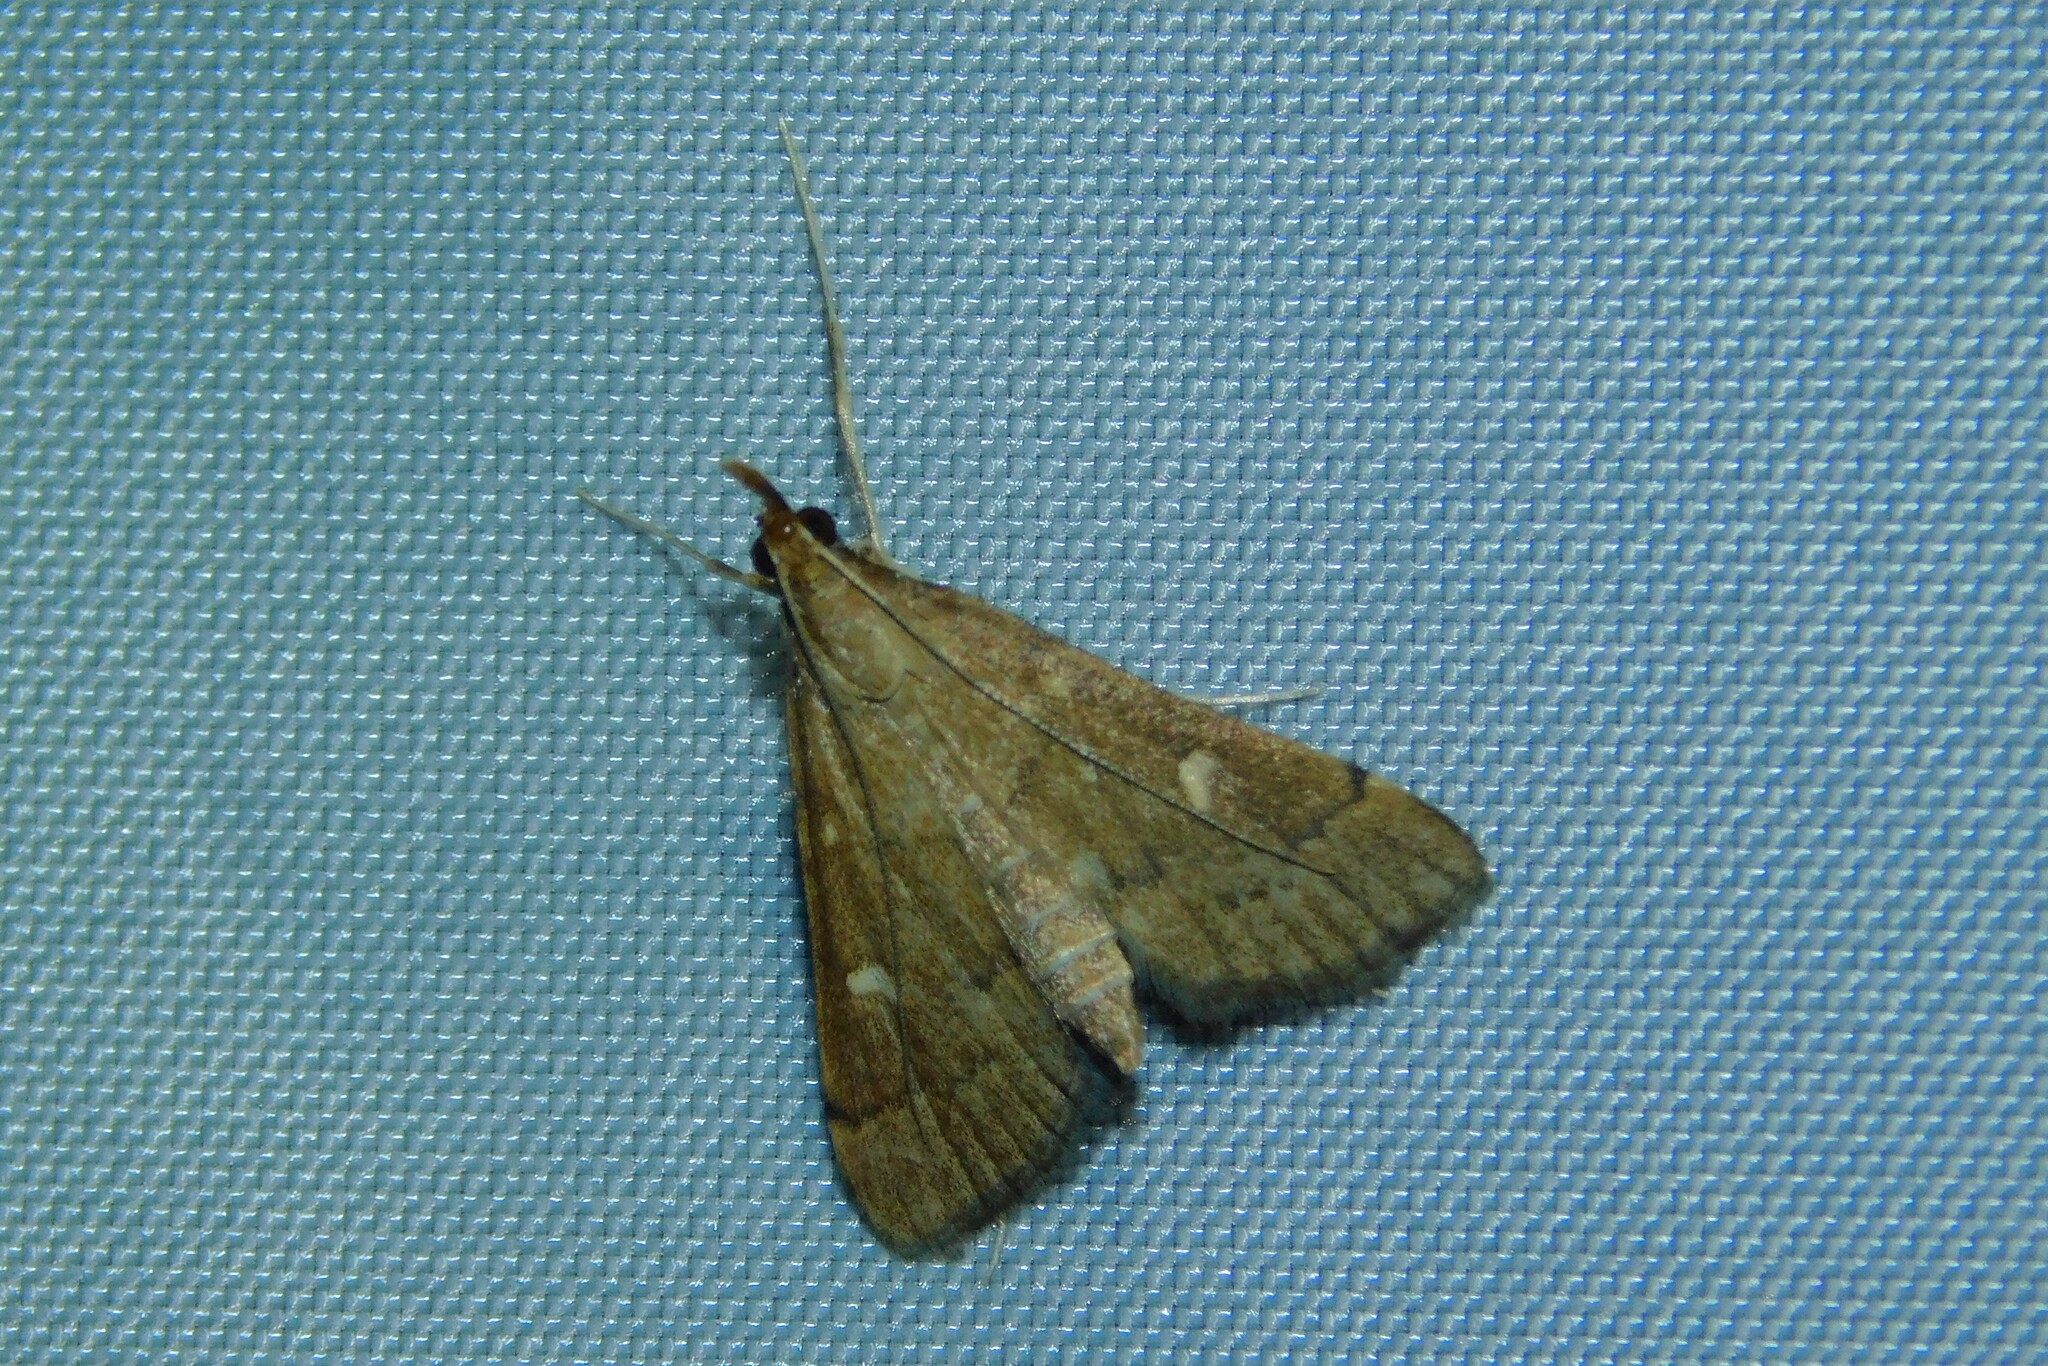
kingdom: Animalia
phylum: Arthropoda
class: Insecta
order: Lepidoptera
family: Crambidae
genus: Stenia
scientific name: Stenia Dolicharthria punctalis
